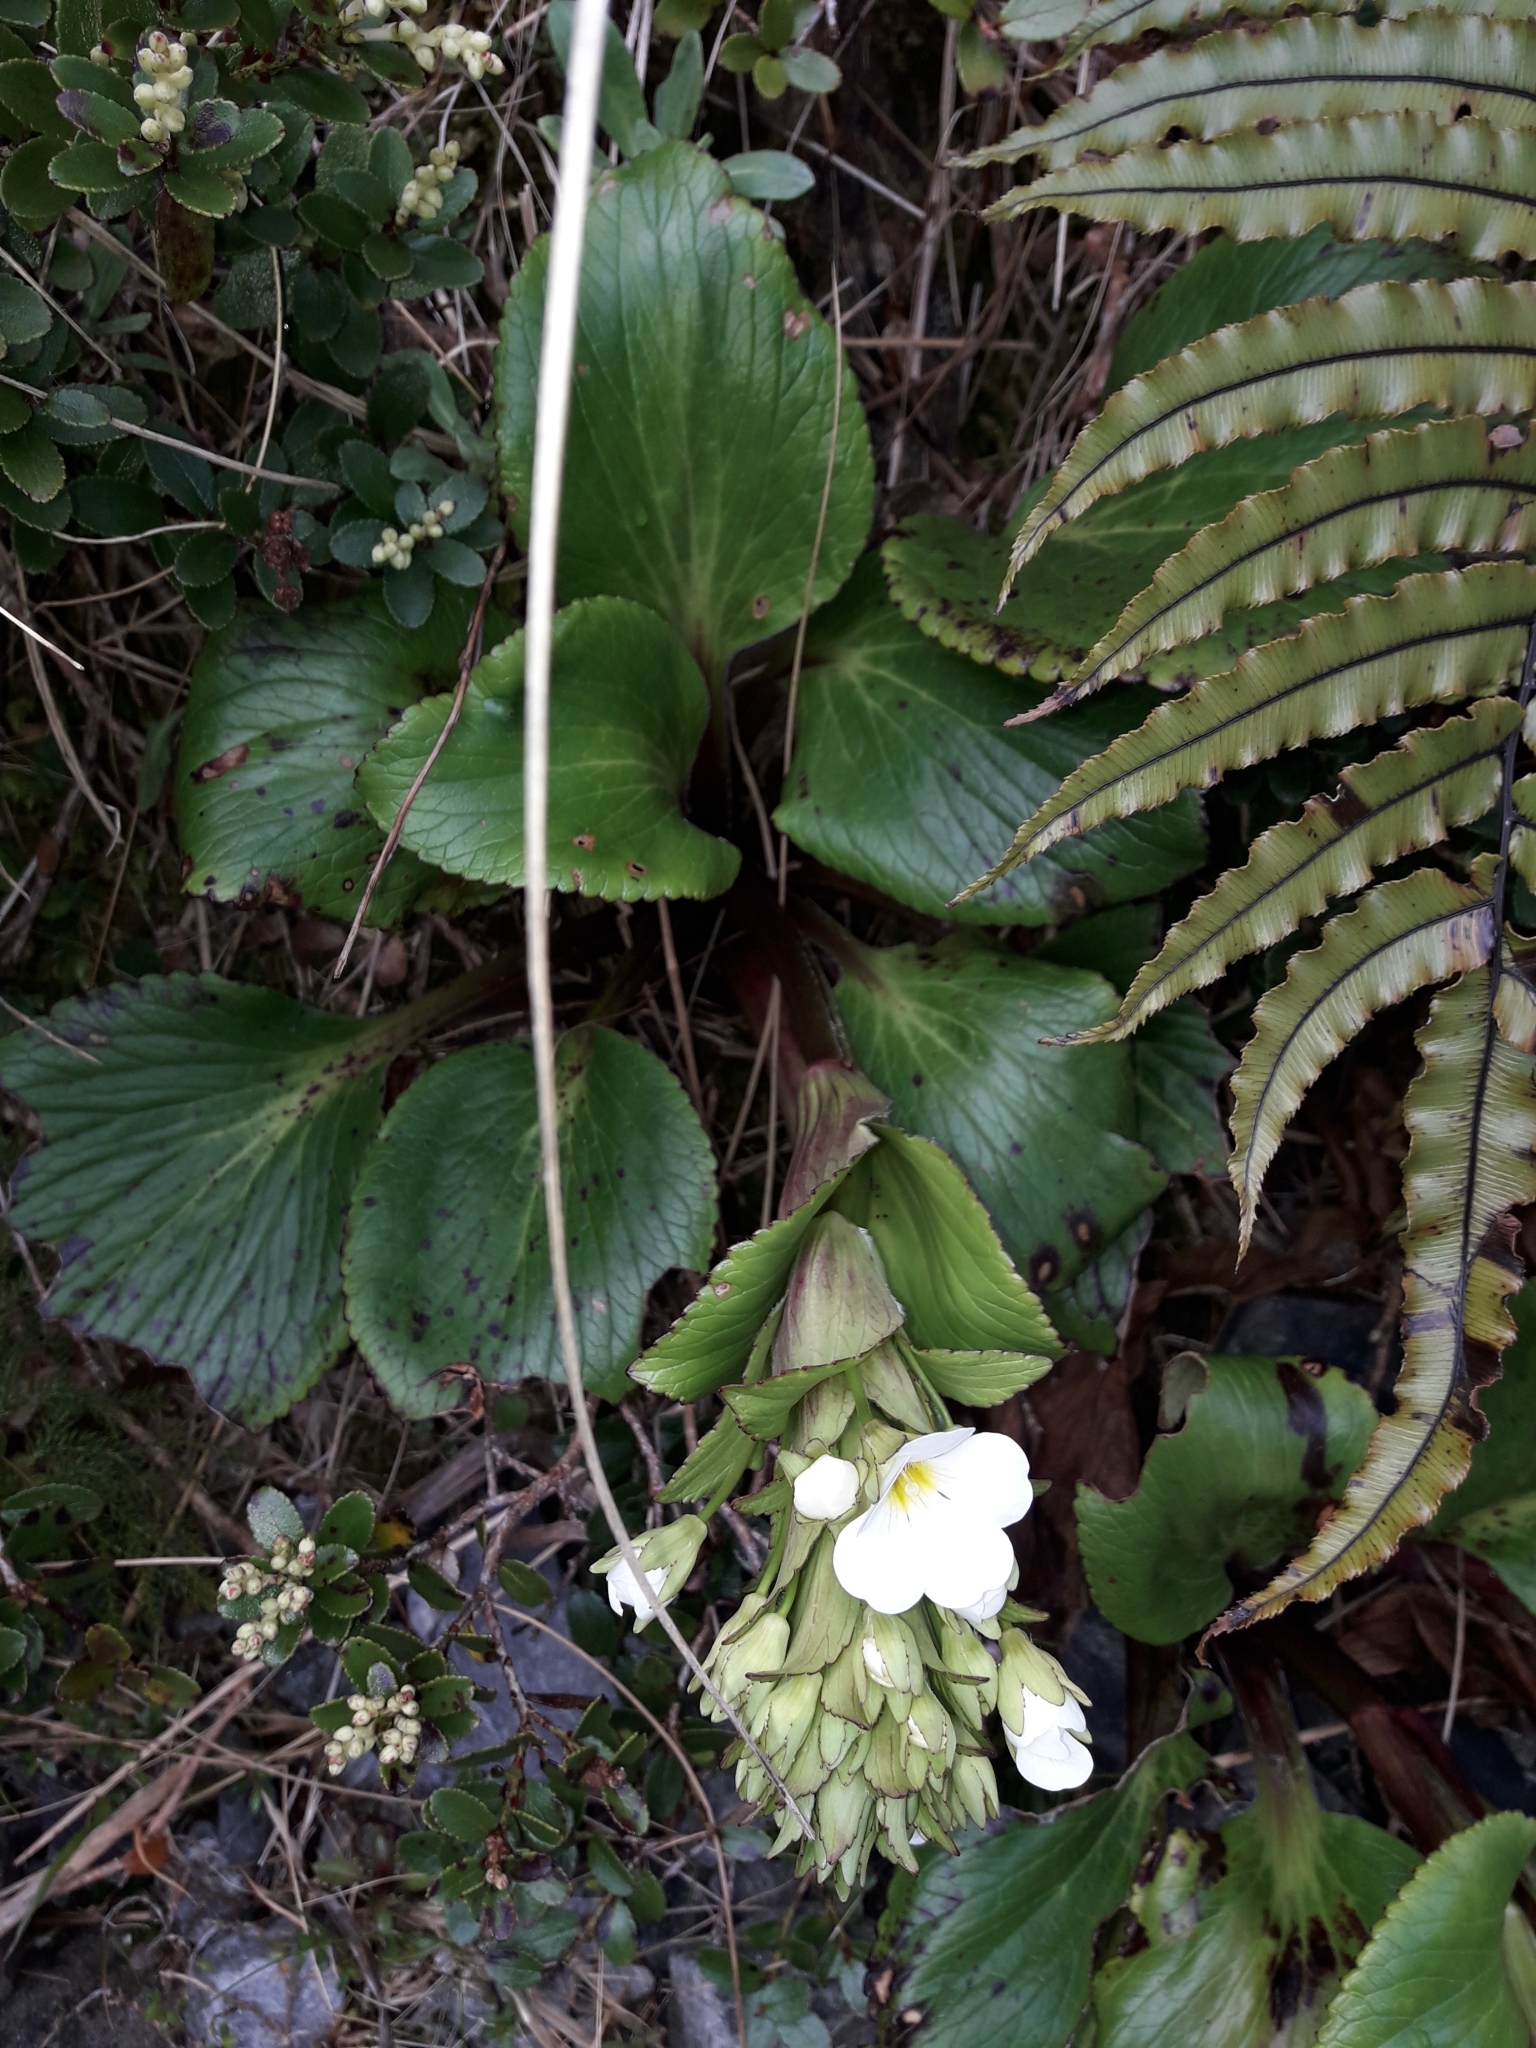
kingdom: Plantae
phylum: Tracheophyta
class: Magnoliopsida
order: Lamiales
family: Plantaginaceae
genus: Ourisia
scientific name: Ourisia calycina
